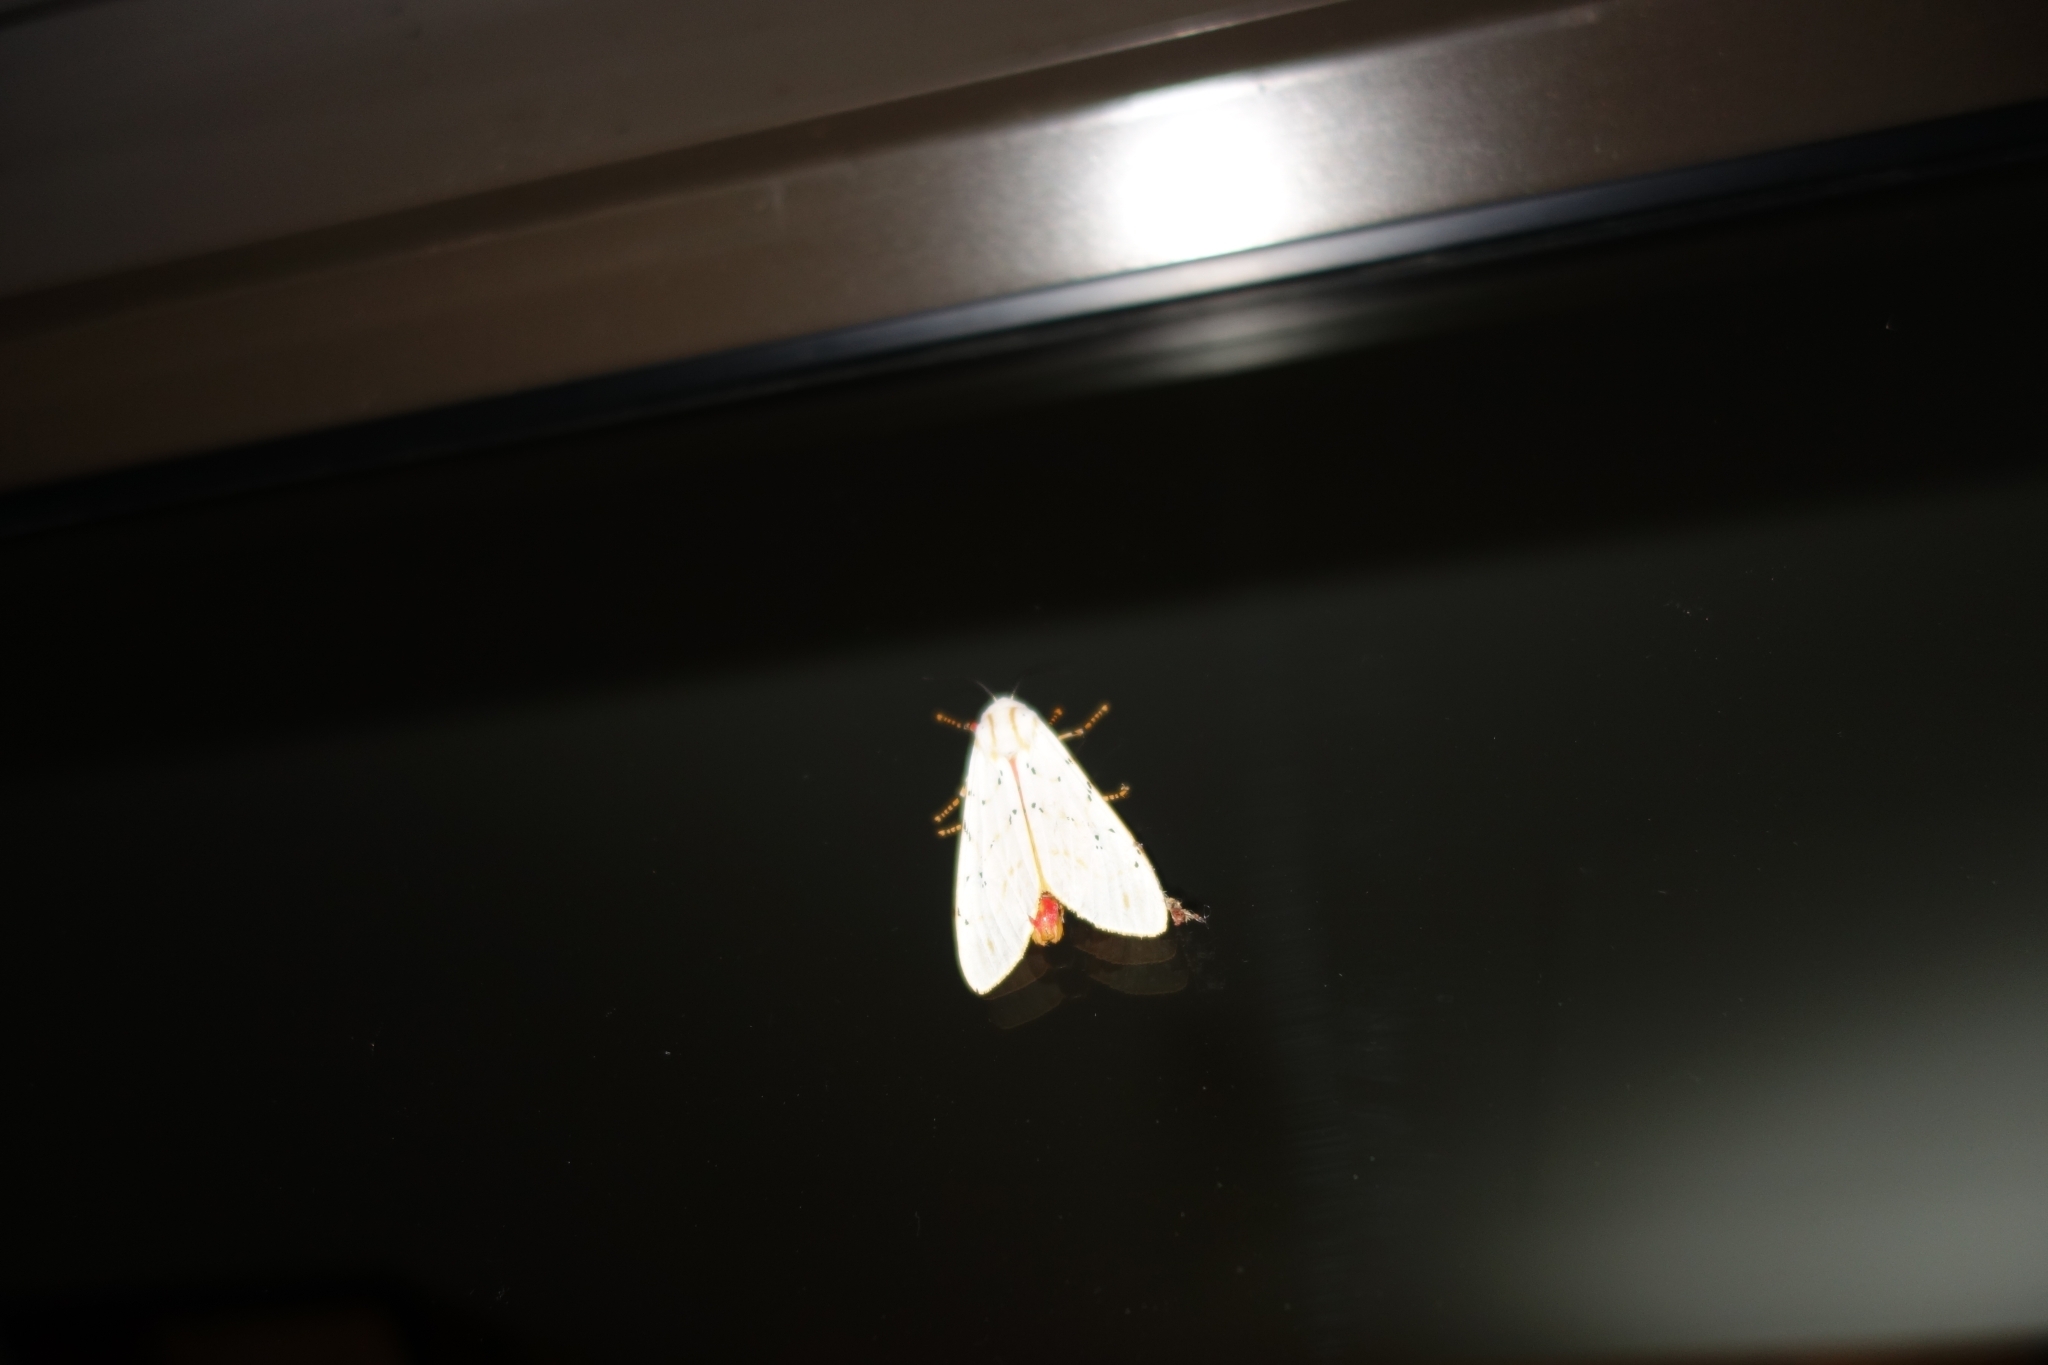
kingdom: Animalia
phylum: Arthropoda
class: Insecta
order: Lepidoptera
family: Erebidae
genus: Rhodogastria
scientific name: Rhodogastria similis
